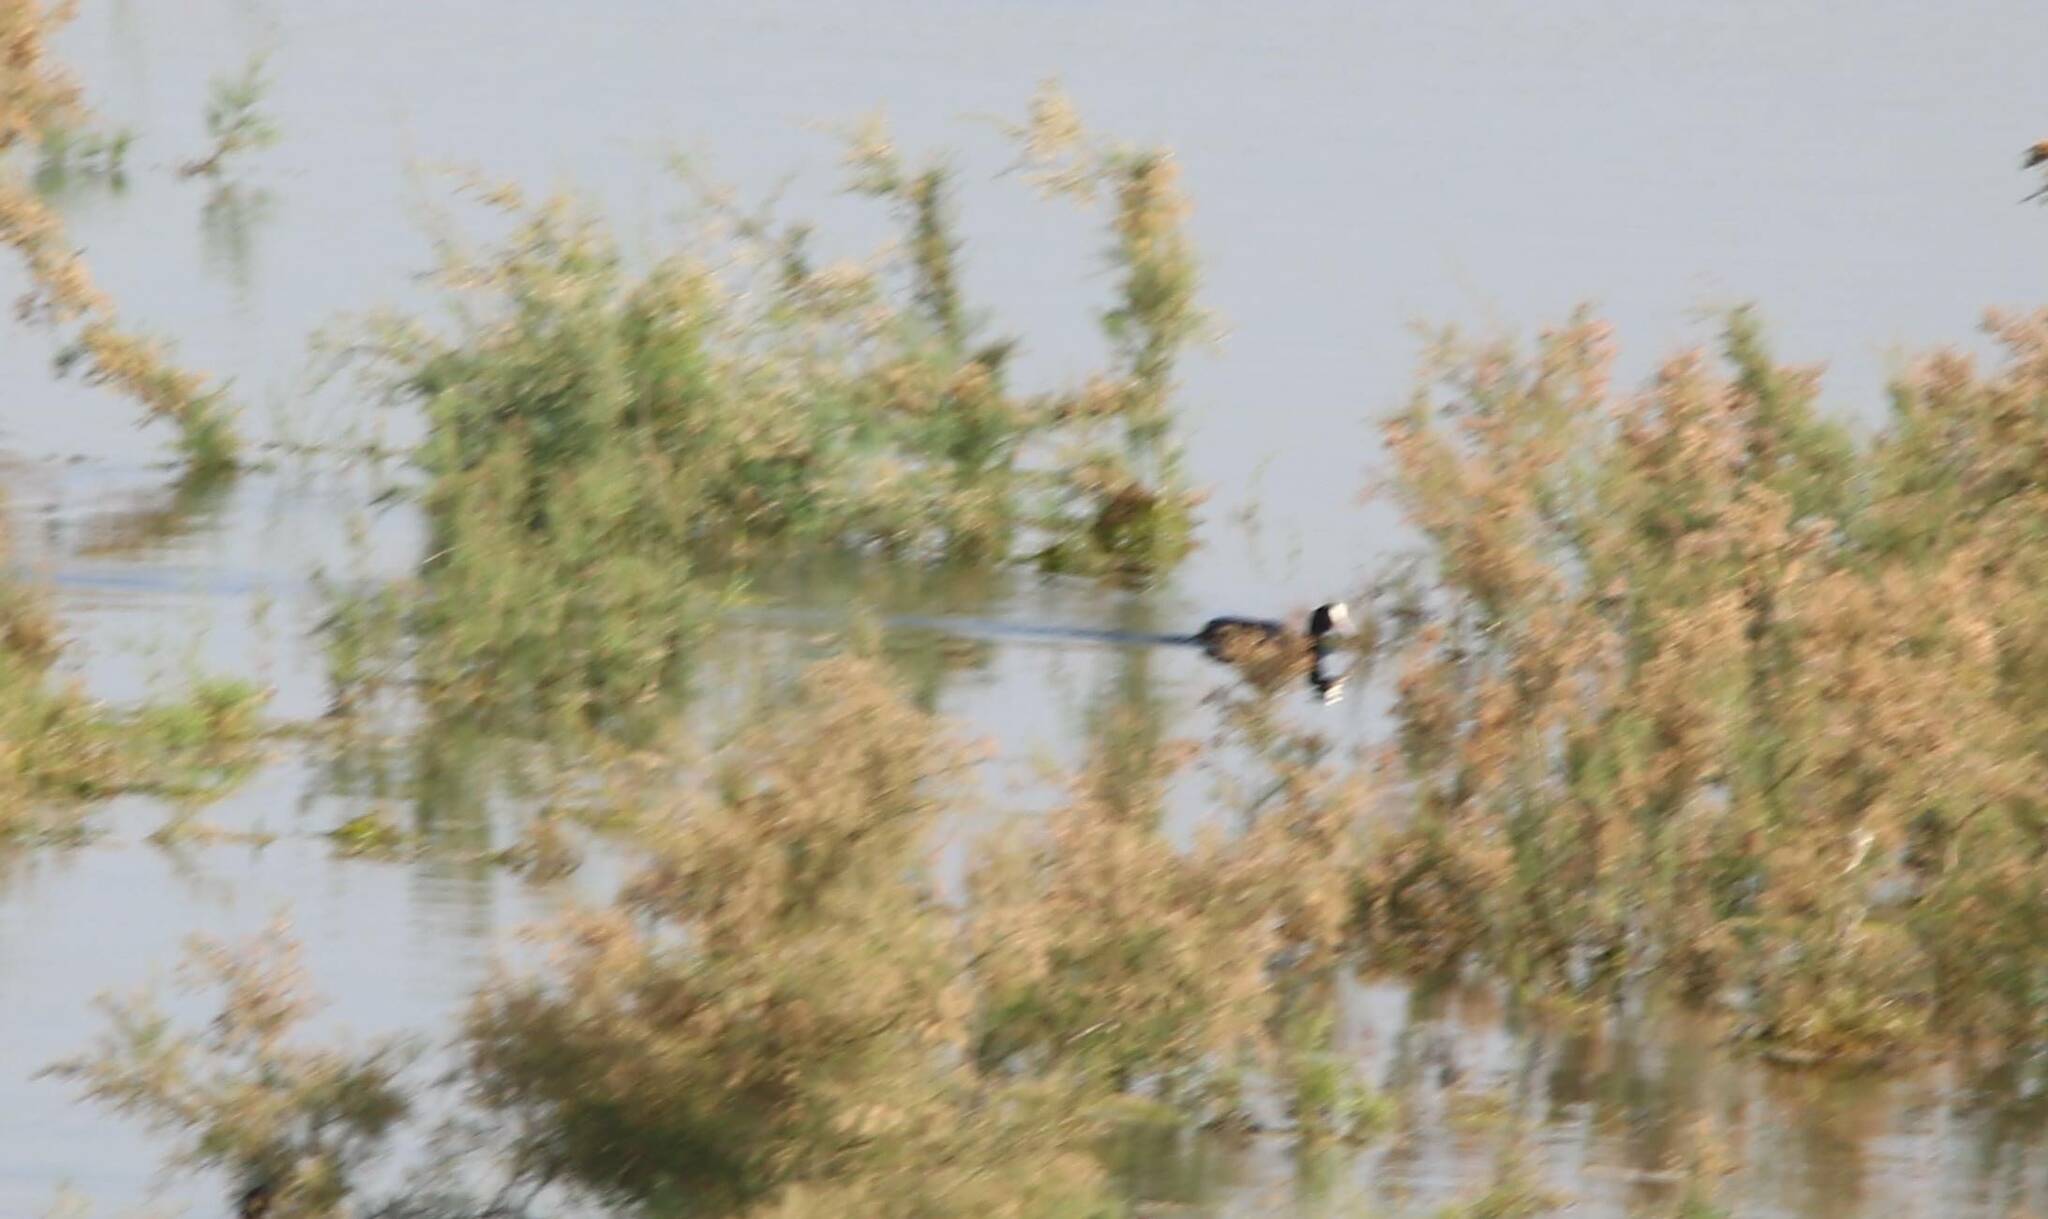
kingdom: Animalia
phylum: Chordata
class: Aves
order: Gruiformes
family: Rallidae
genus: Fulica
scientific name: Fulica atra
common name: Eurasian coot
